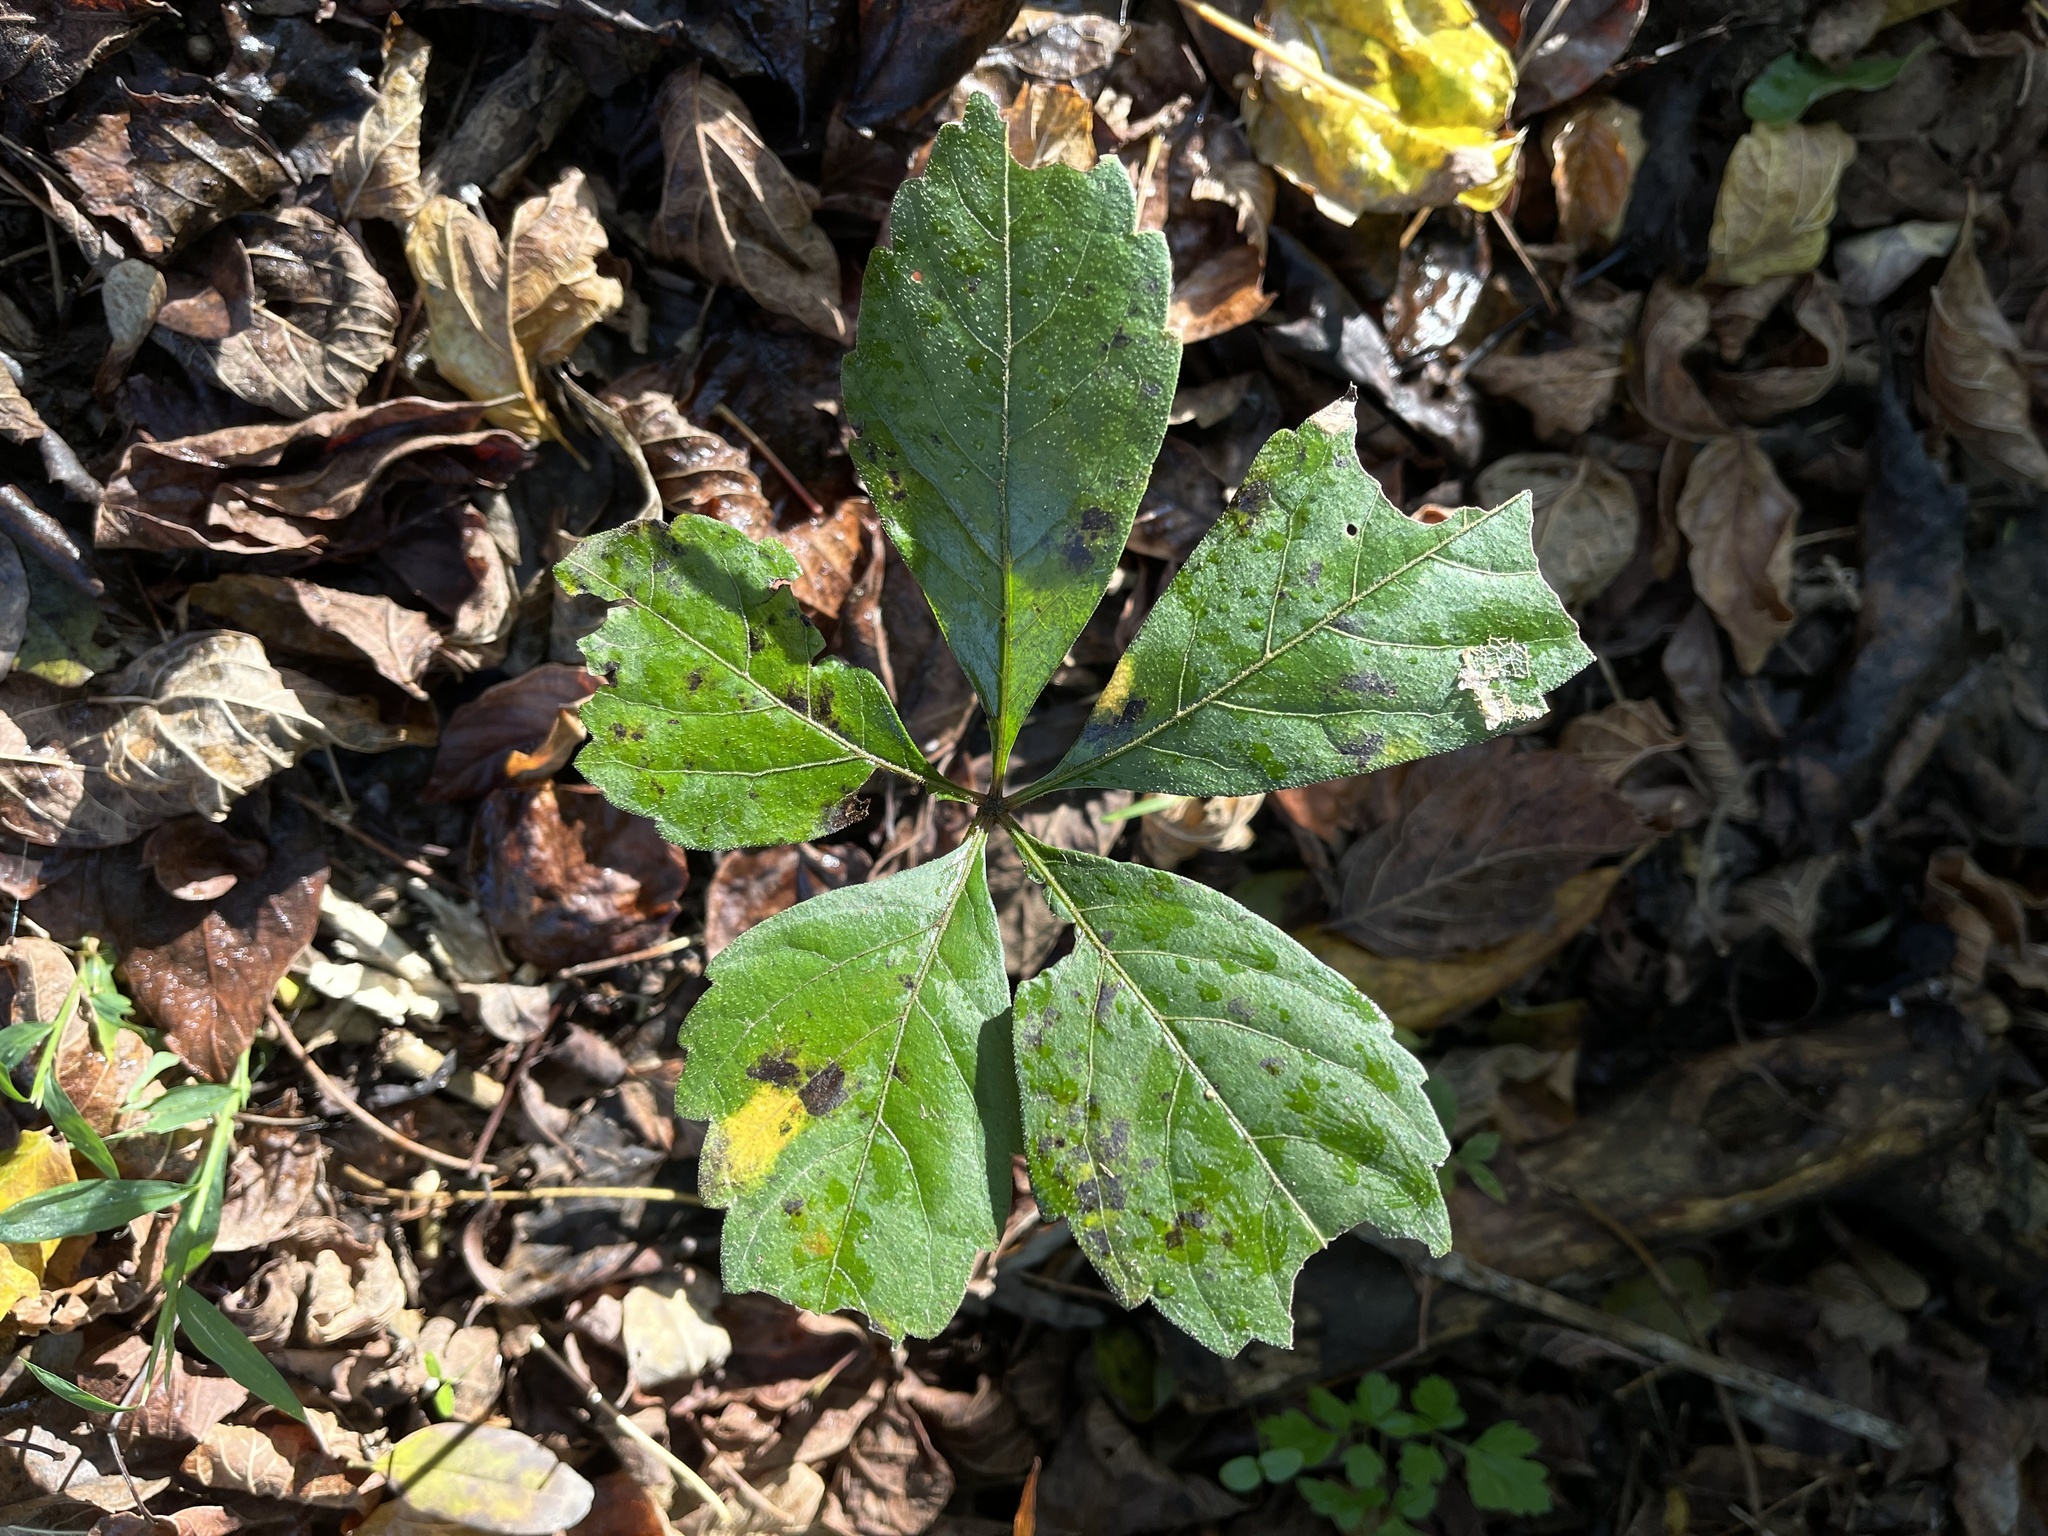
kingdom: Plantae
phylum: Tracheophyta
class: Magnoliopsida
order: Vitales
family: Vitaceae
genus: Parthenocissus
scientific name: Parthenocissus quinquefolia
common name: Virginia-creeper
